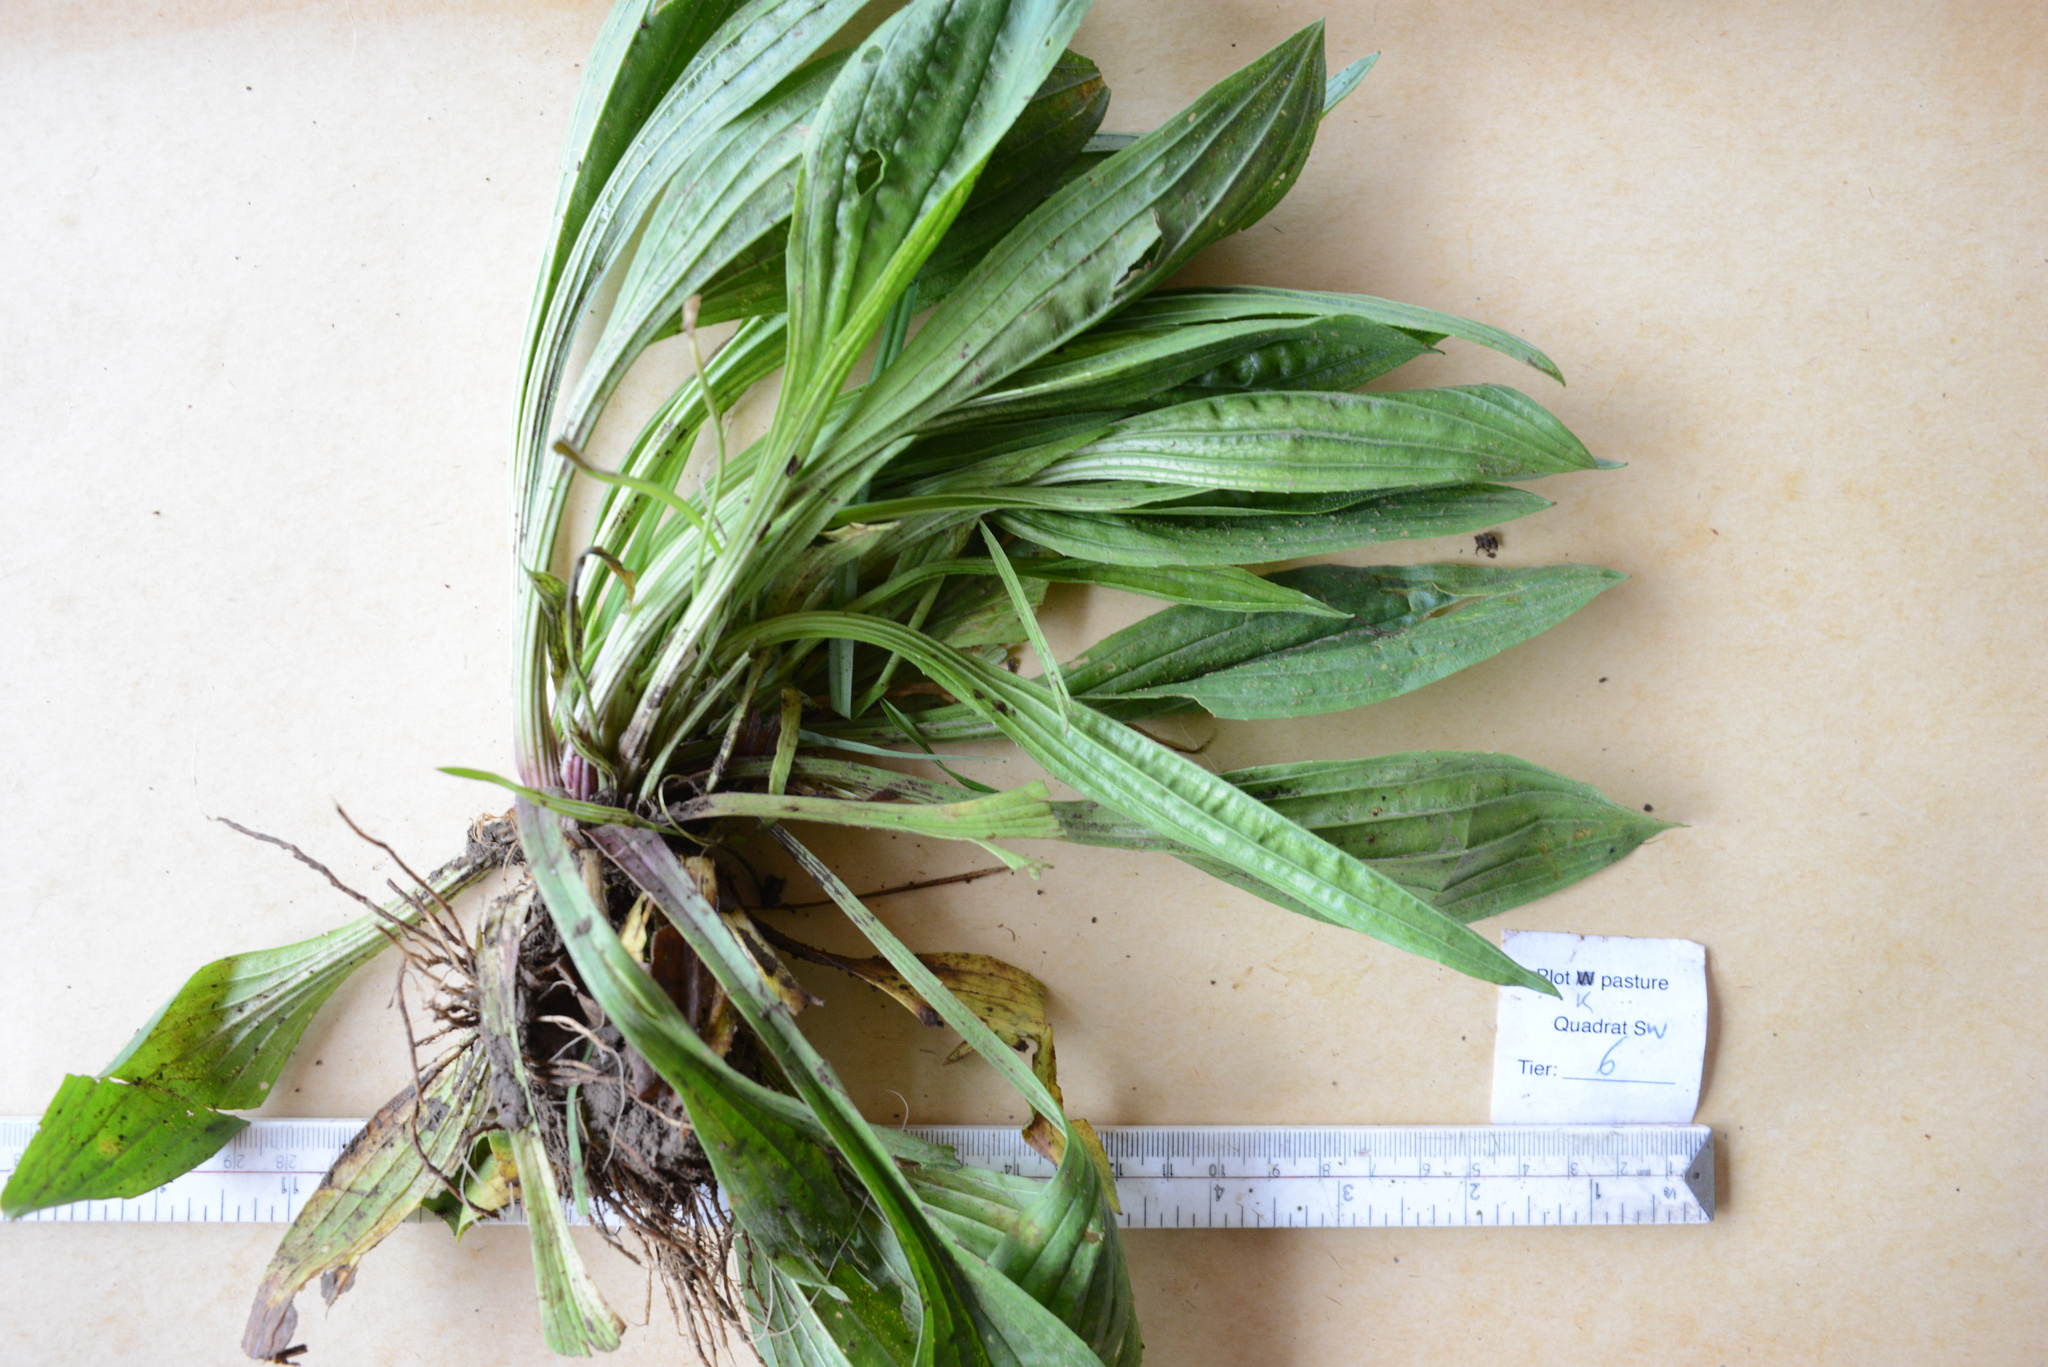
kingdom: Plantae
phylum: Tracheophyta
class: Magnoliopsida
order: Lamiales
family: Plantaginaceae
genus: Plantago
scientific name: Plantago lanceolata
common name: Ribwort plantain
